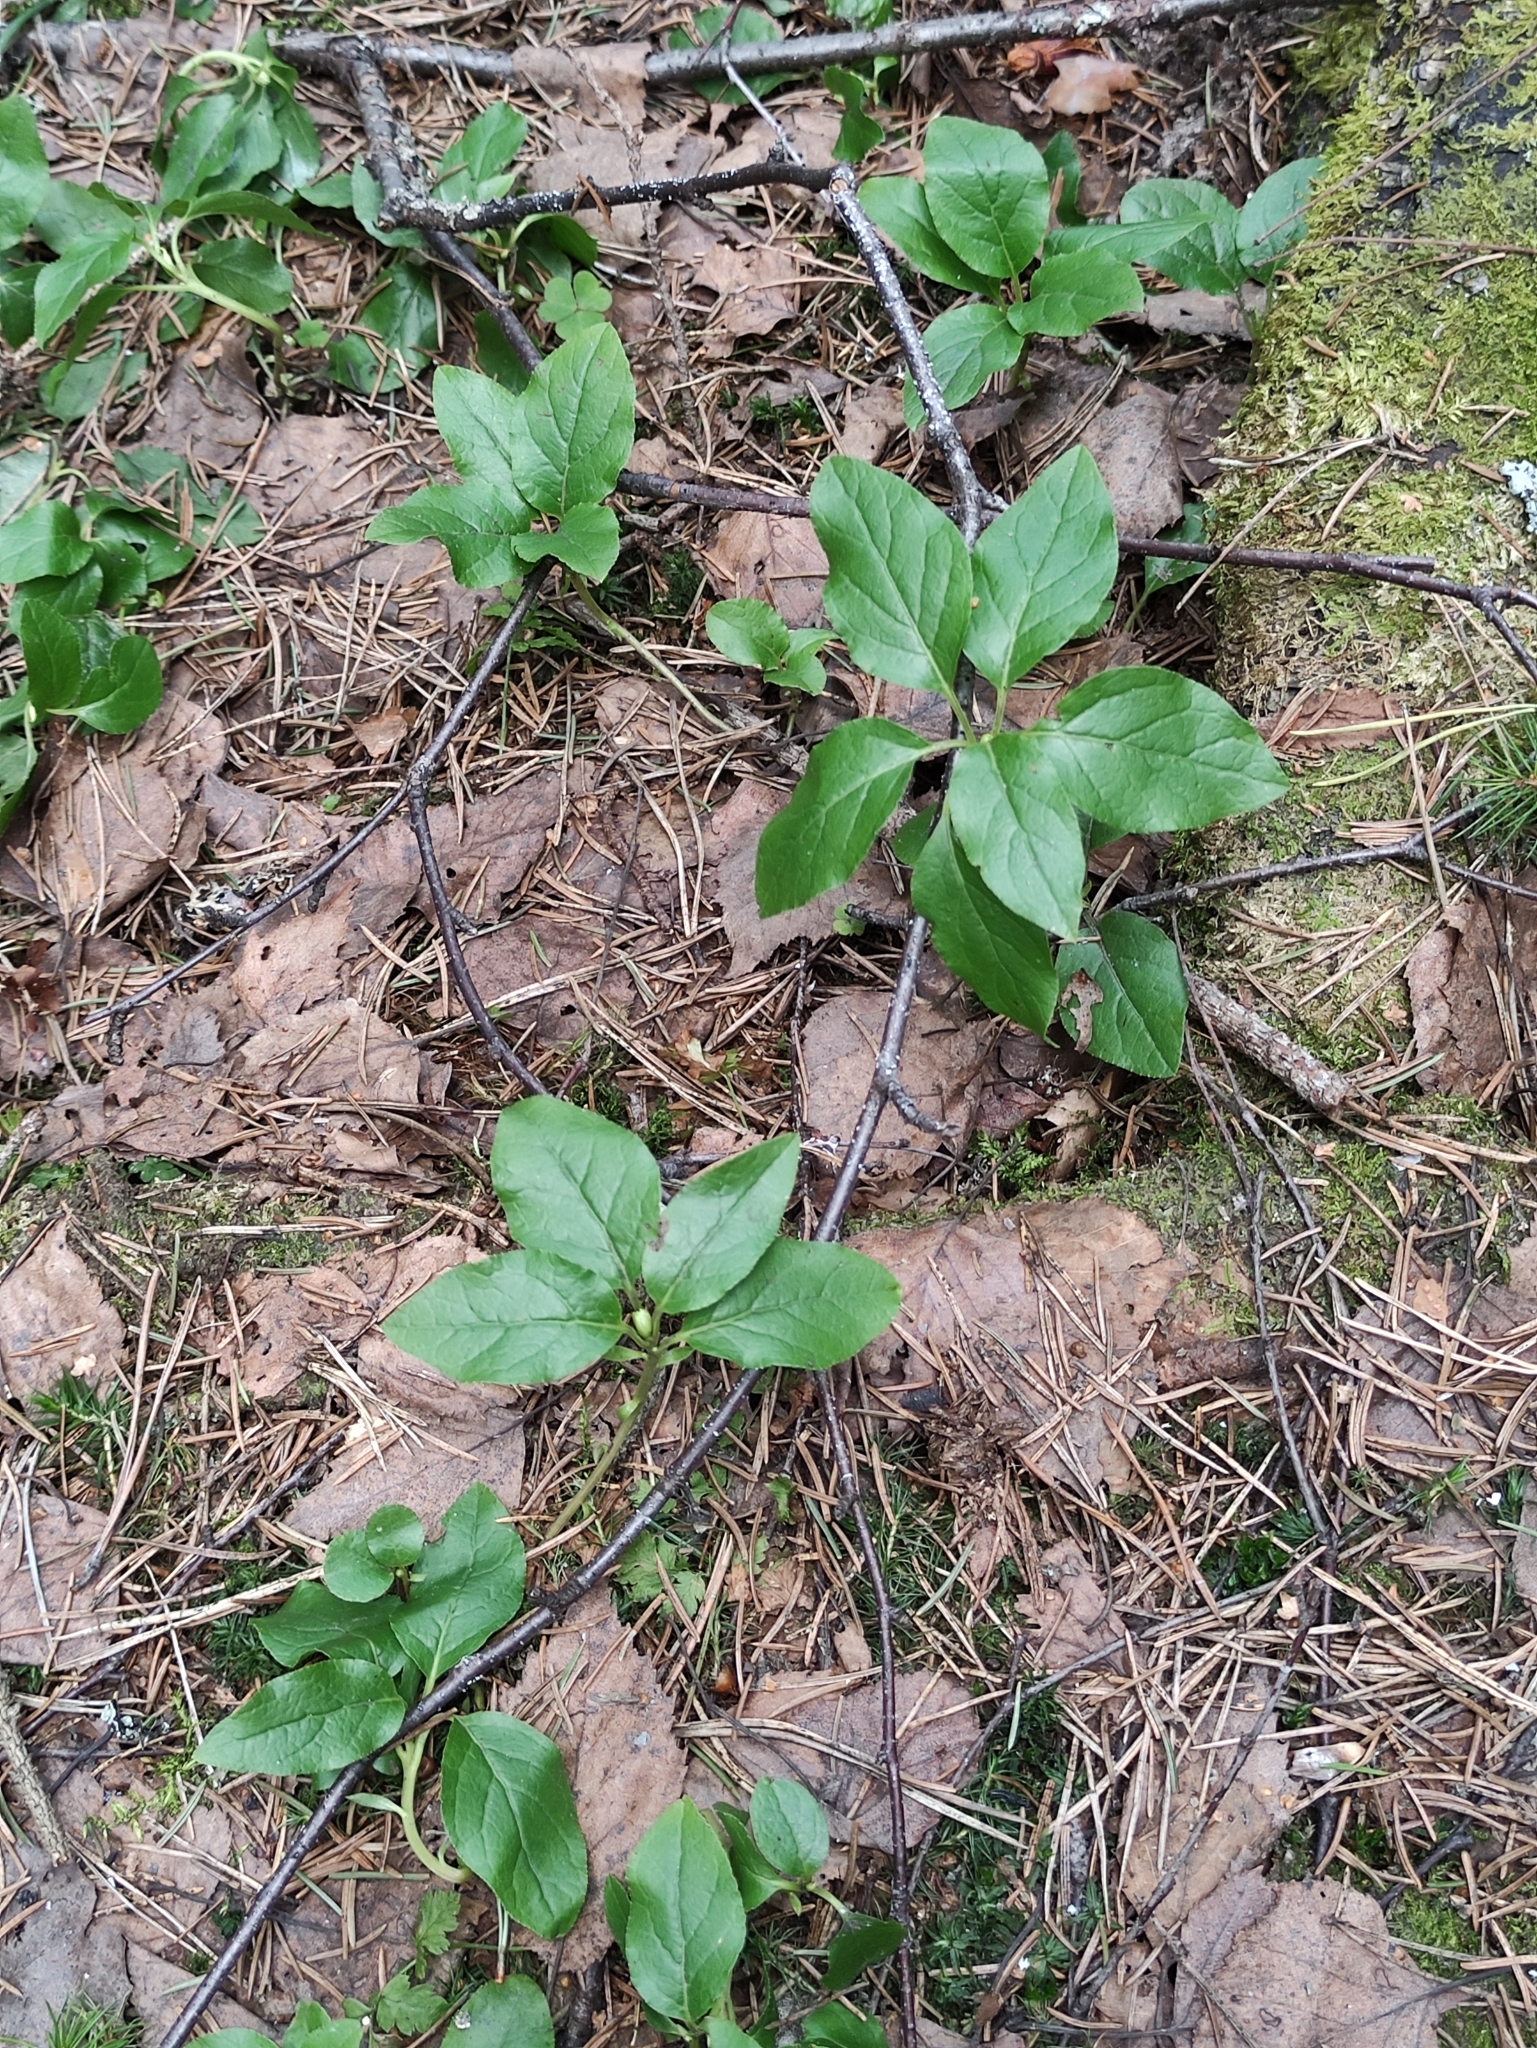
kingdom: Plantae
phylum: Tracheophyta
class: Magnoliopsida
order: Ericales
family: Ericaceae
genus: Orthilia
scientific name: Orthilia secunda
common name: One-sided orthilia
